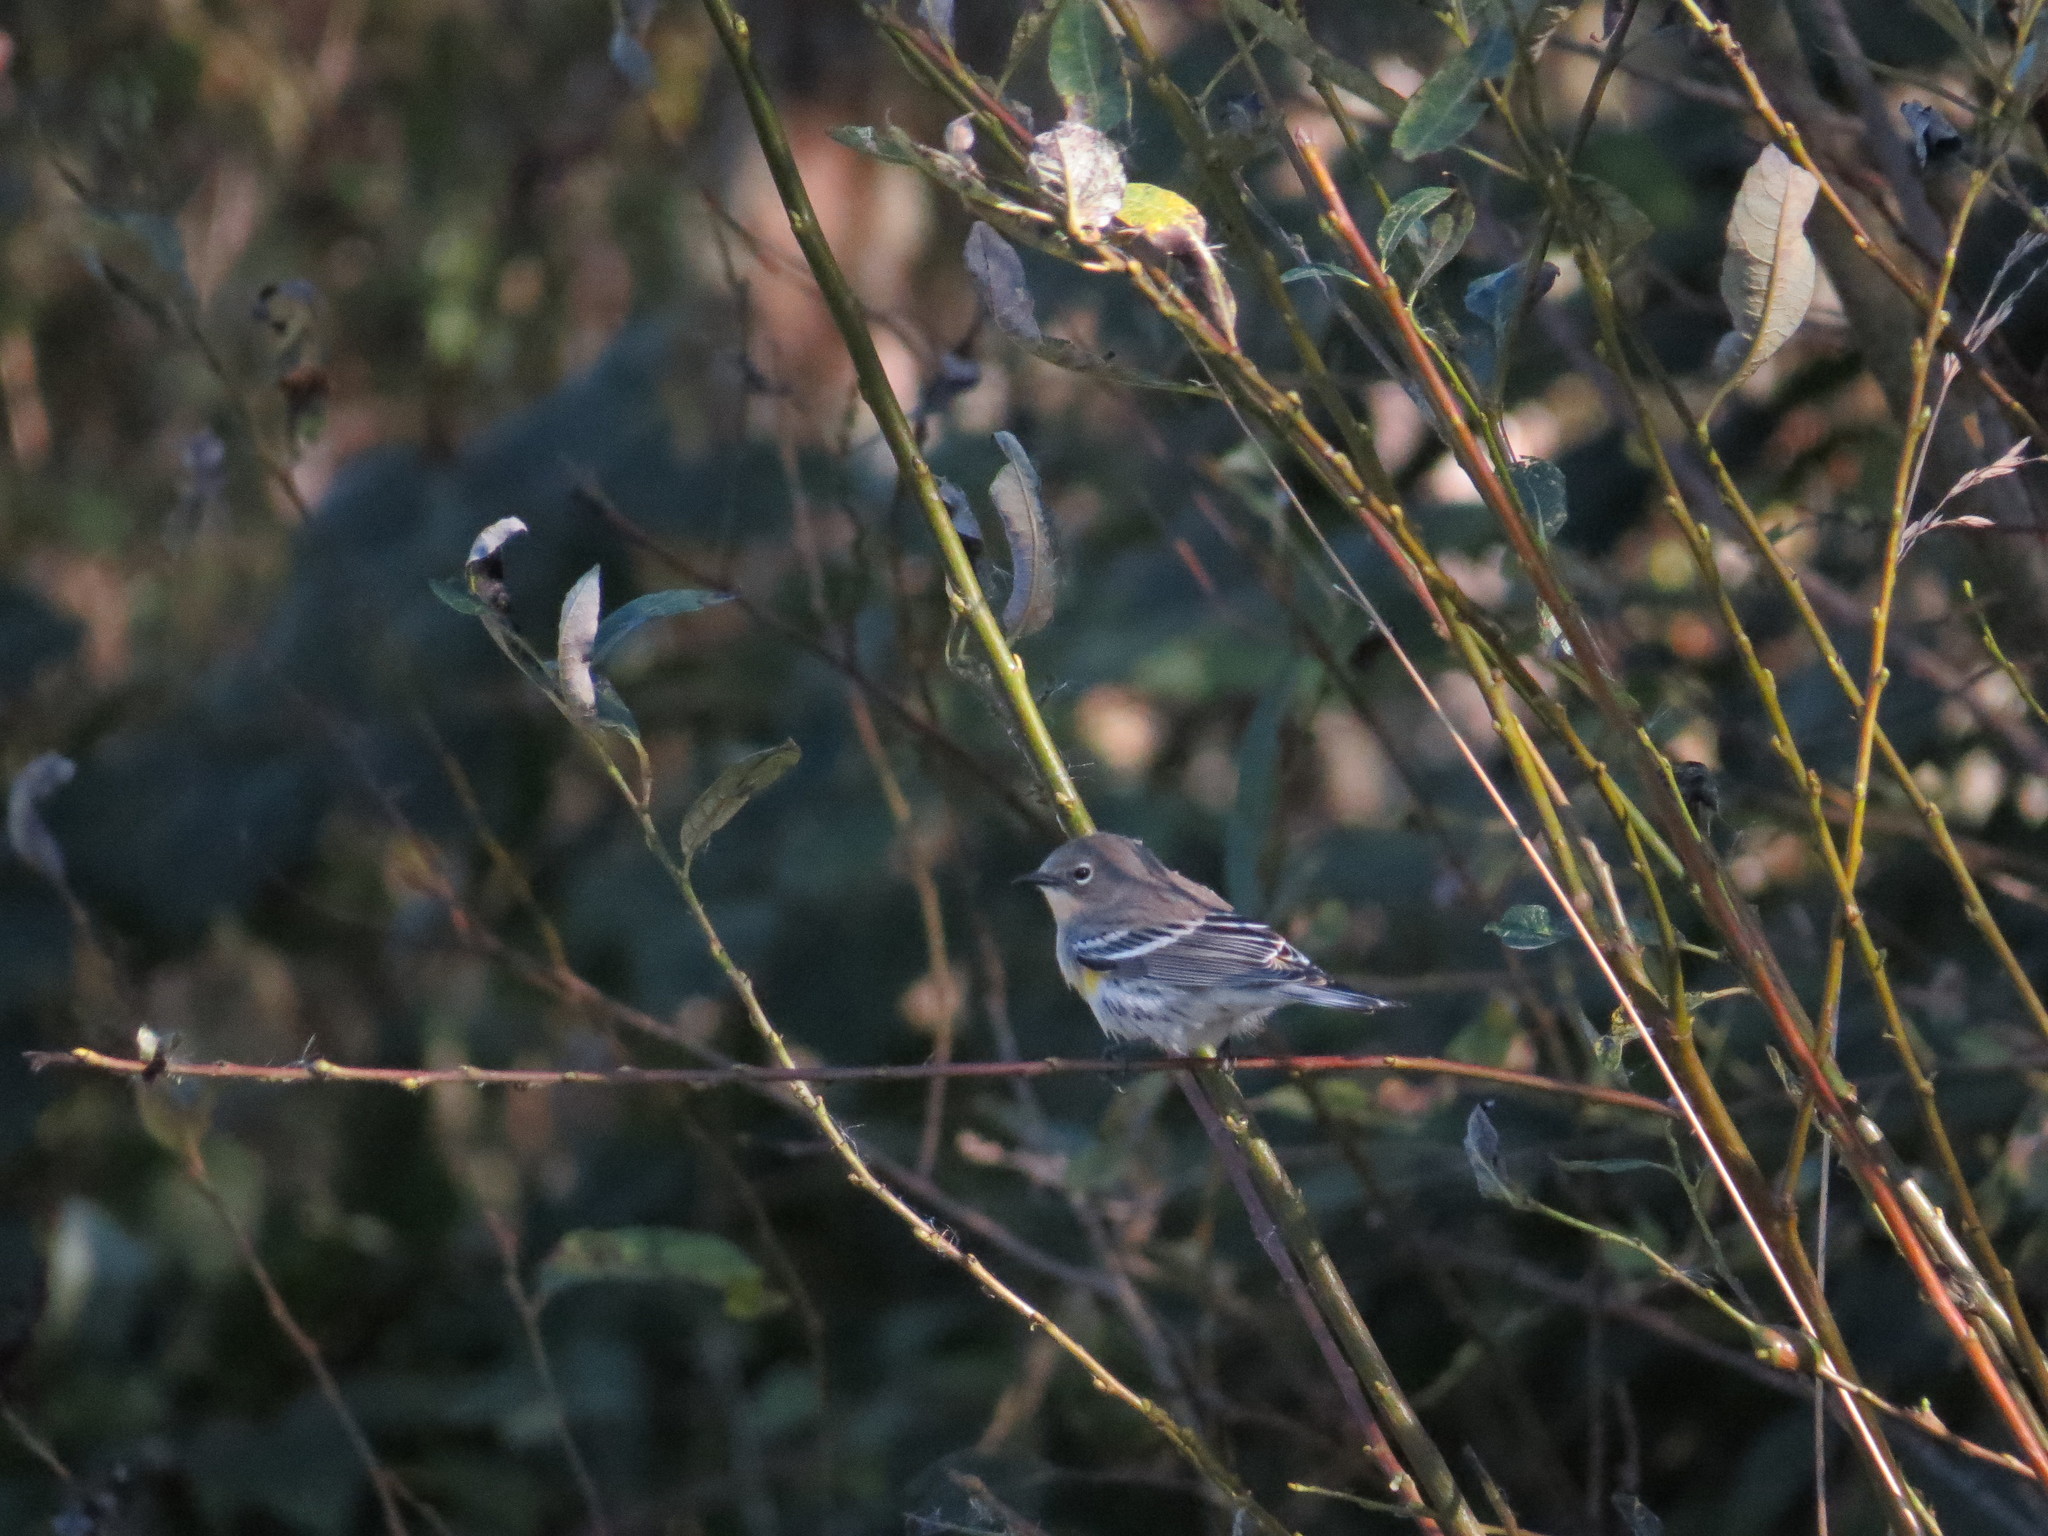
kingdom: Animalia
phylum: Chordata
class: Aves
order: Passeriformes
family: Parulidae
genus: Setophaga
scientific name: Setophaga coronata
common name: Myrtle warbler
